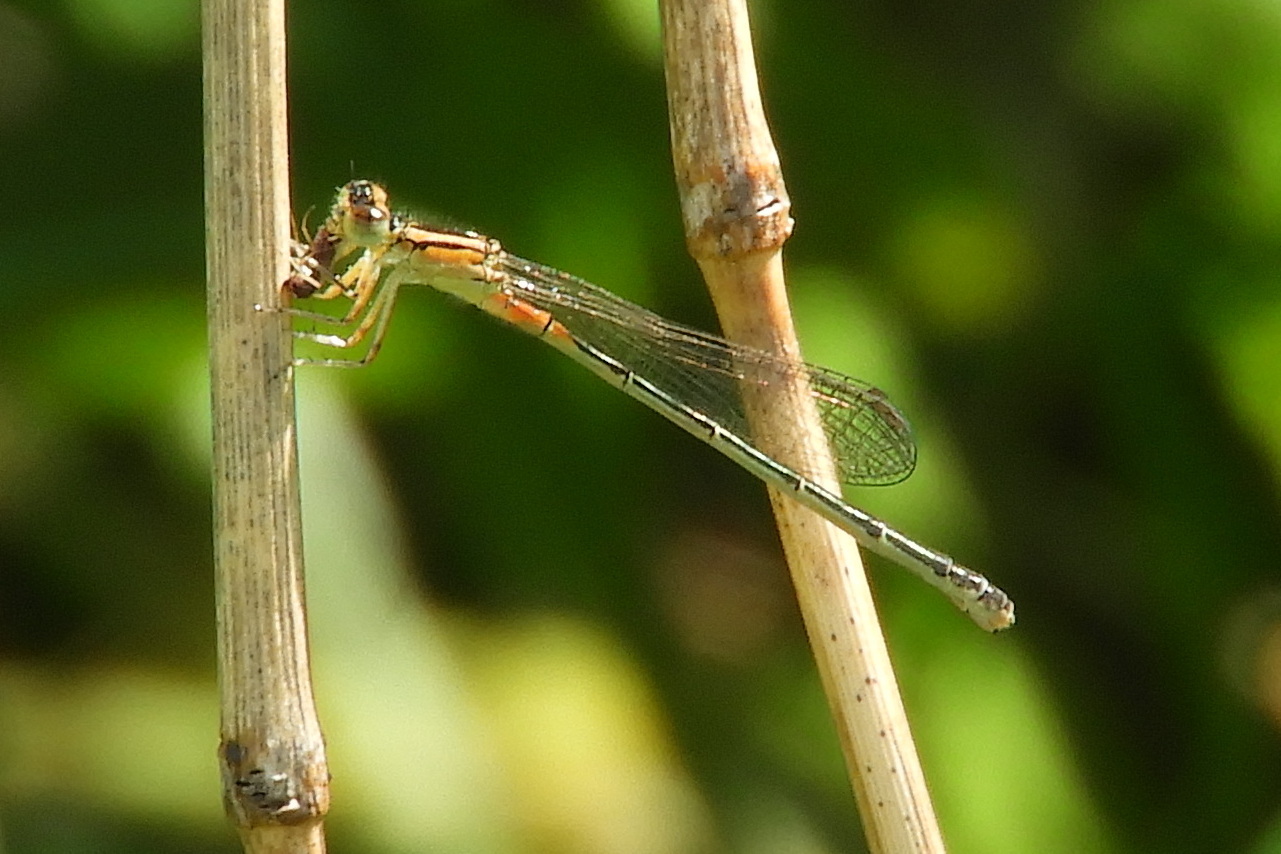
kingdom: Animalia
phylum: Arthropoda
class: Insecta
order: Odonata
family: Coenagrionidae
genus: Ischnura
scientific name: Ischnura verticalis
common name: Eastern forktail
